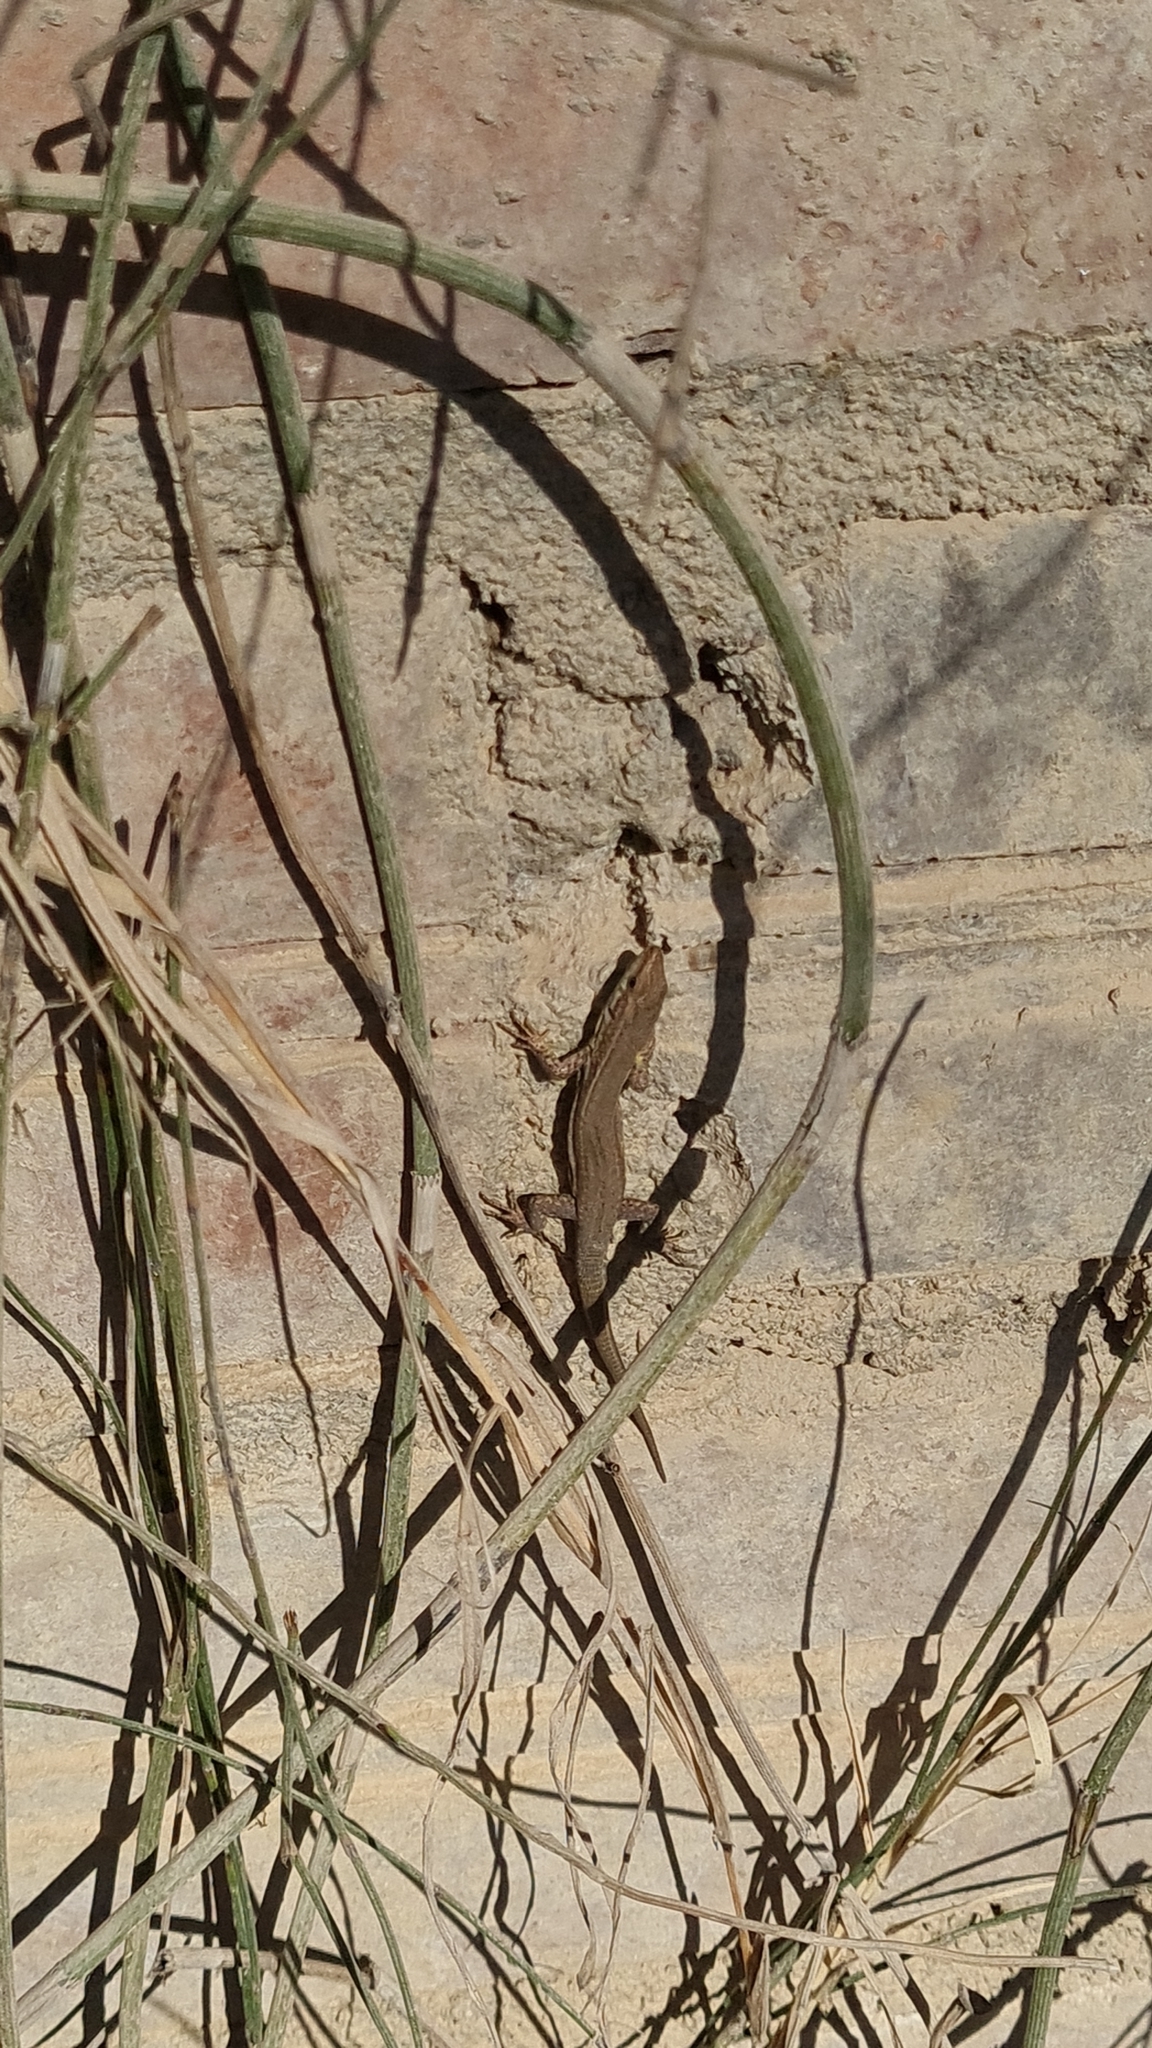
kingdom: Animalia
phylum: Chordata
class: Squamata
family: Lacertidae
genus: Podarcis
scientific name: Podarcis liolepis
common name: Catalonian wall lizard
